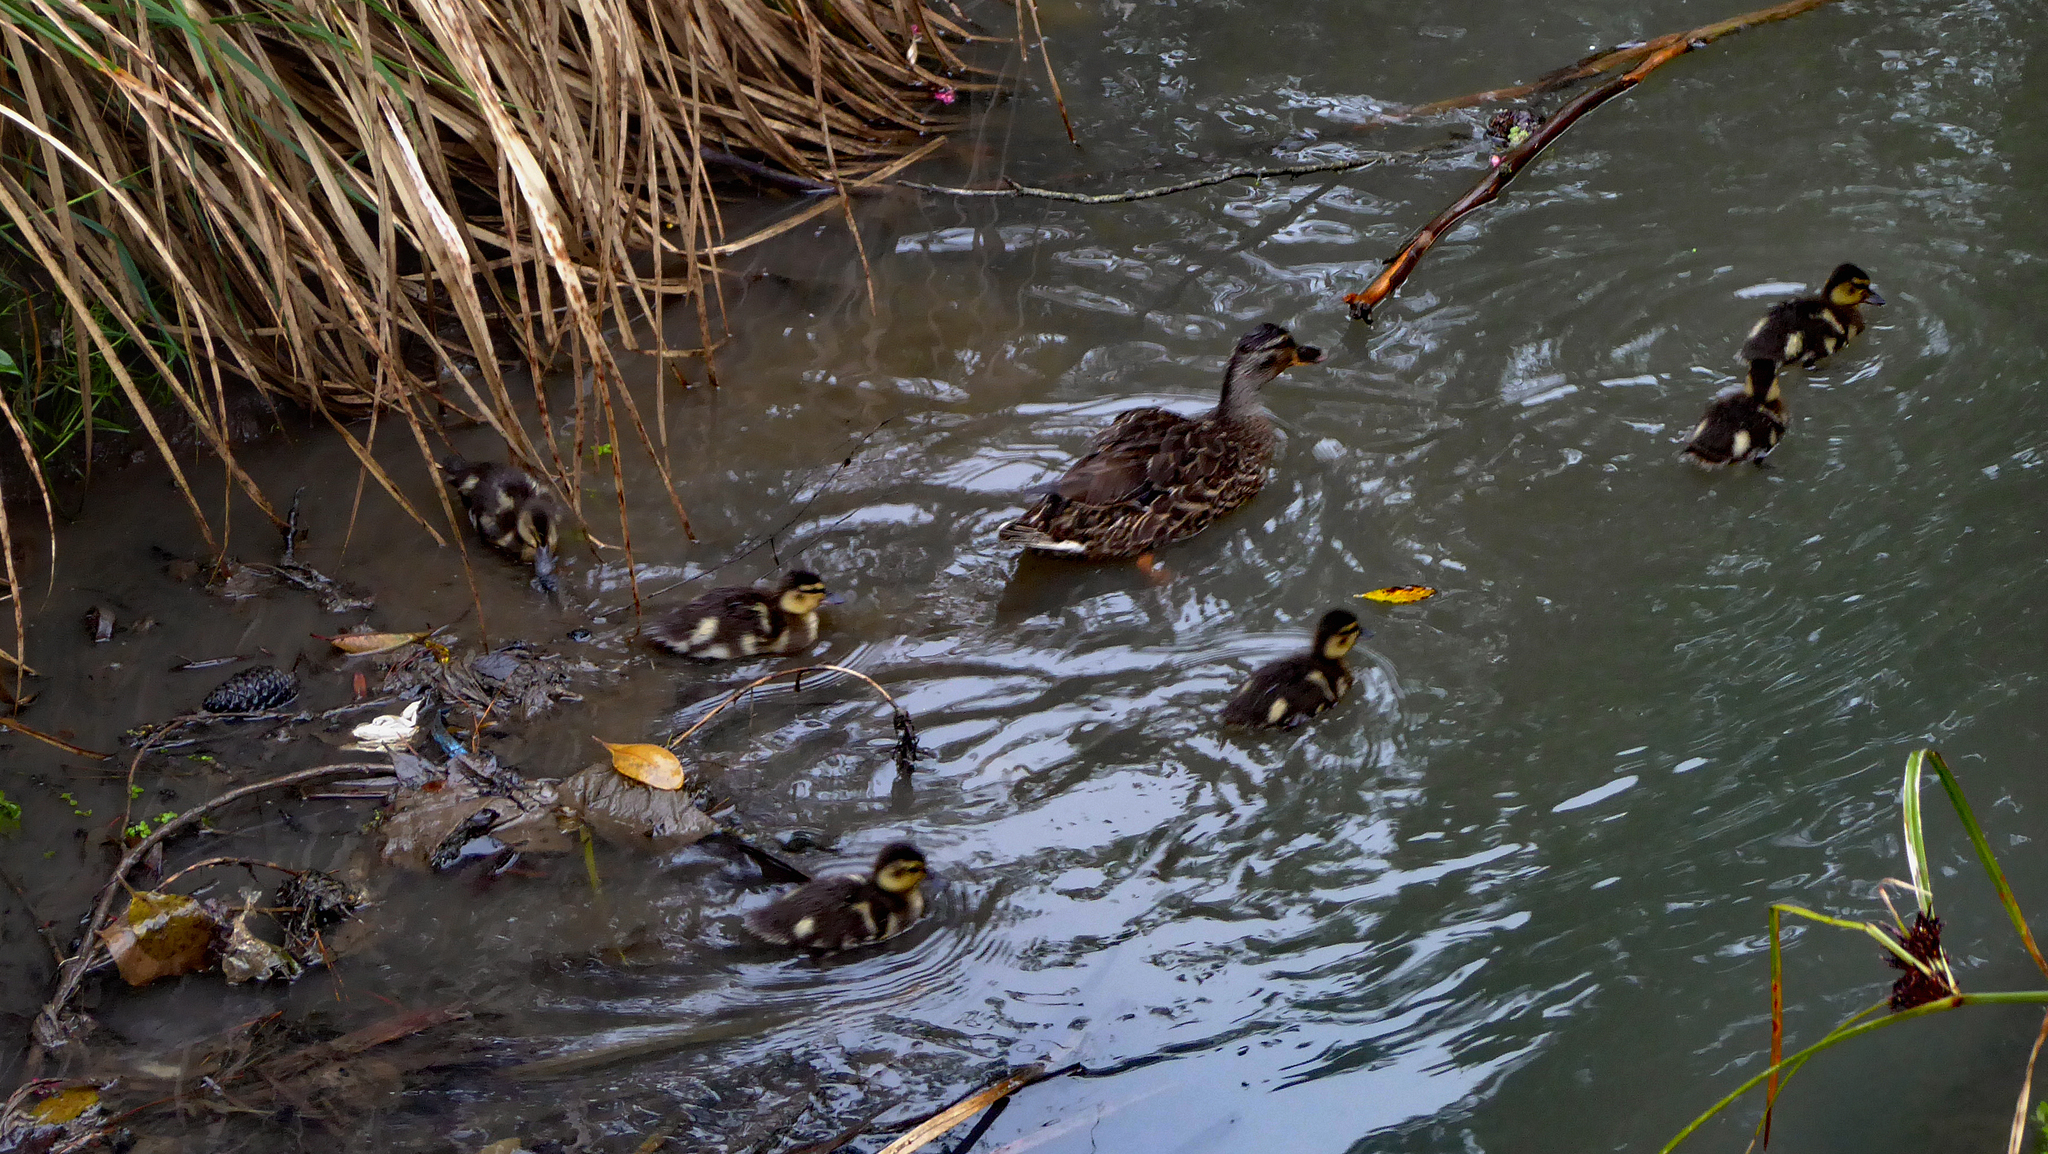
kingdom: Animalia
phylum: Chordata
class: Aves
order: Anseriformes
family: Anatidae
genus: Anas
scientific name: Anas platyrhynchos
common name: Mallard
